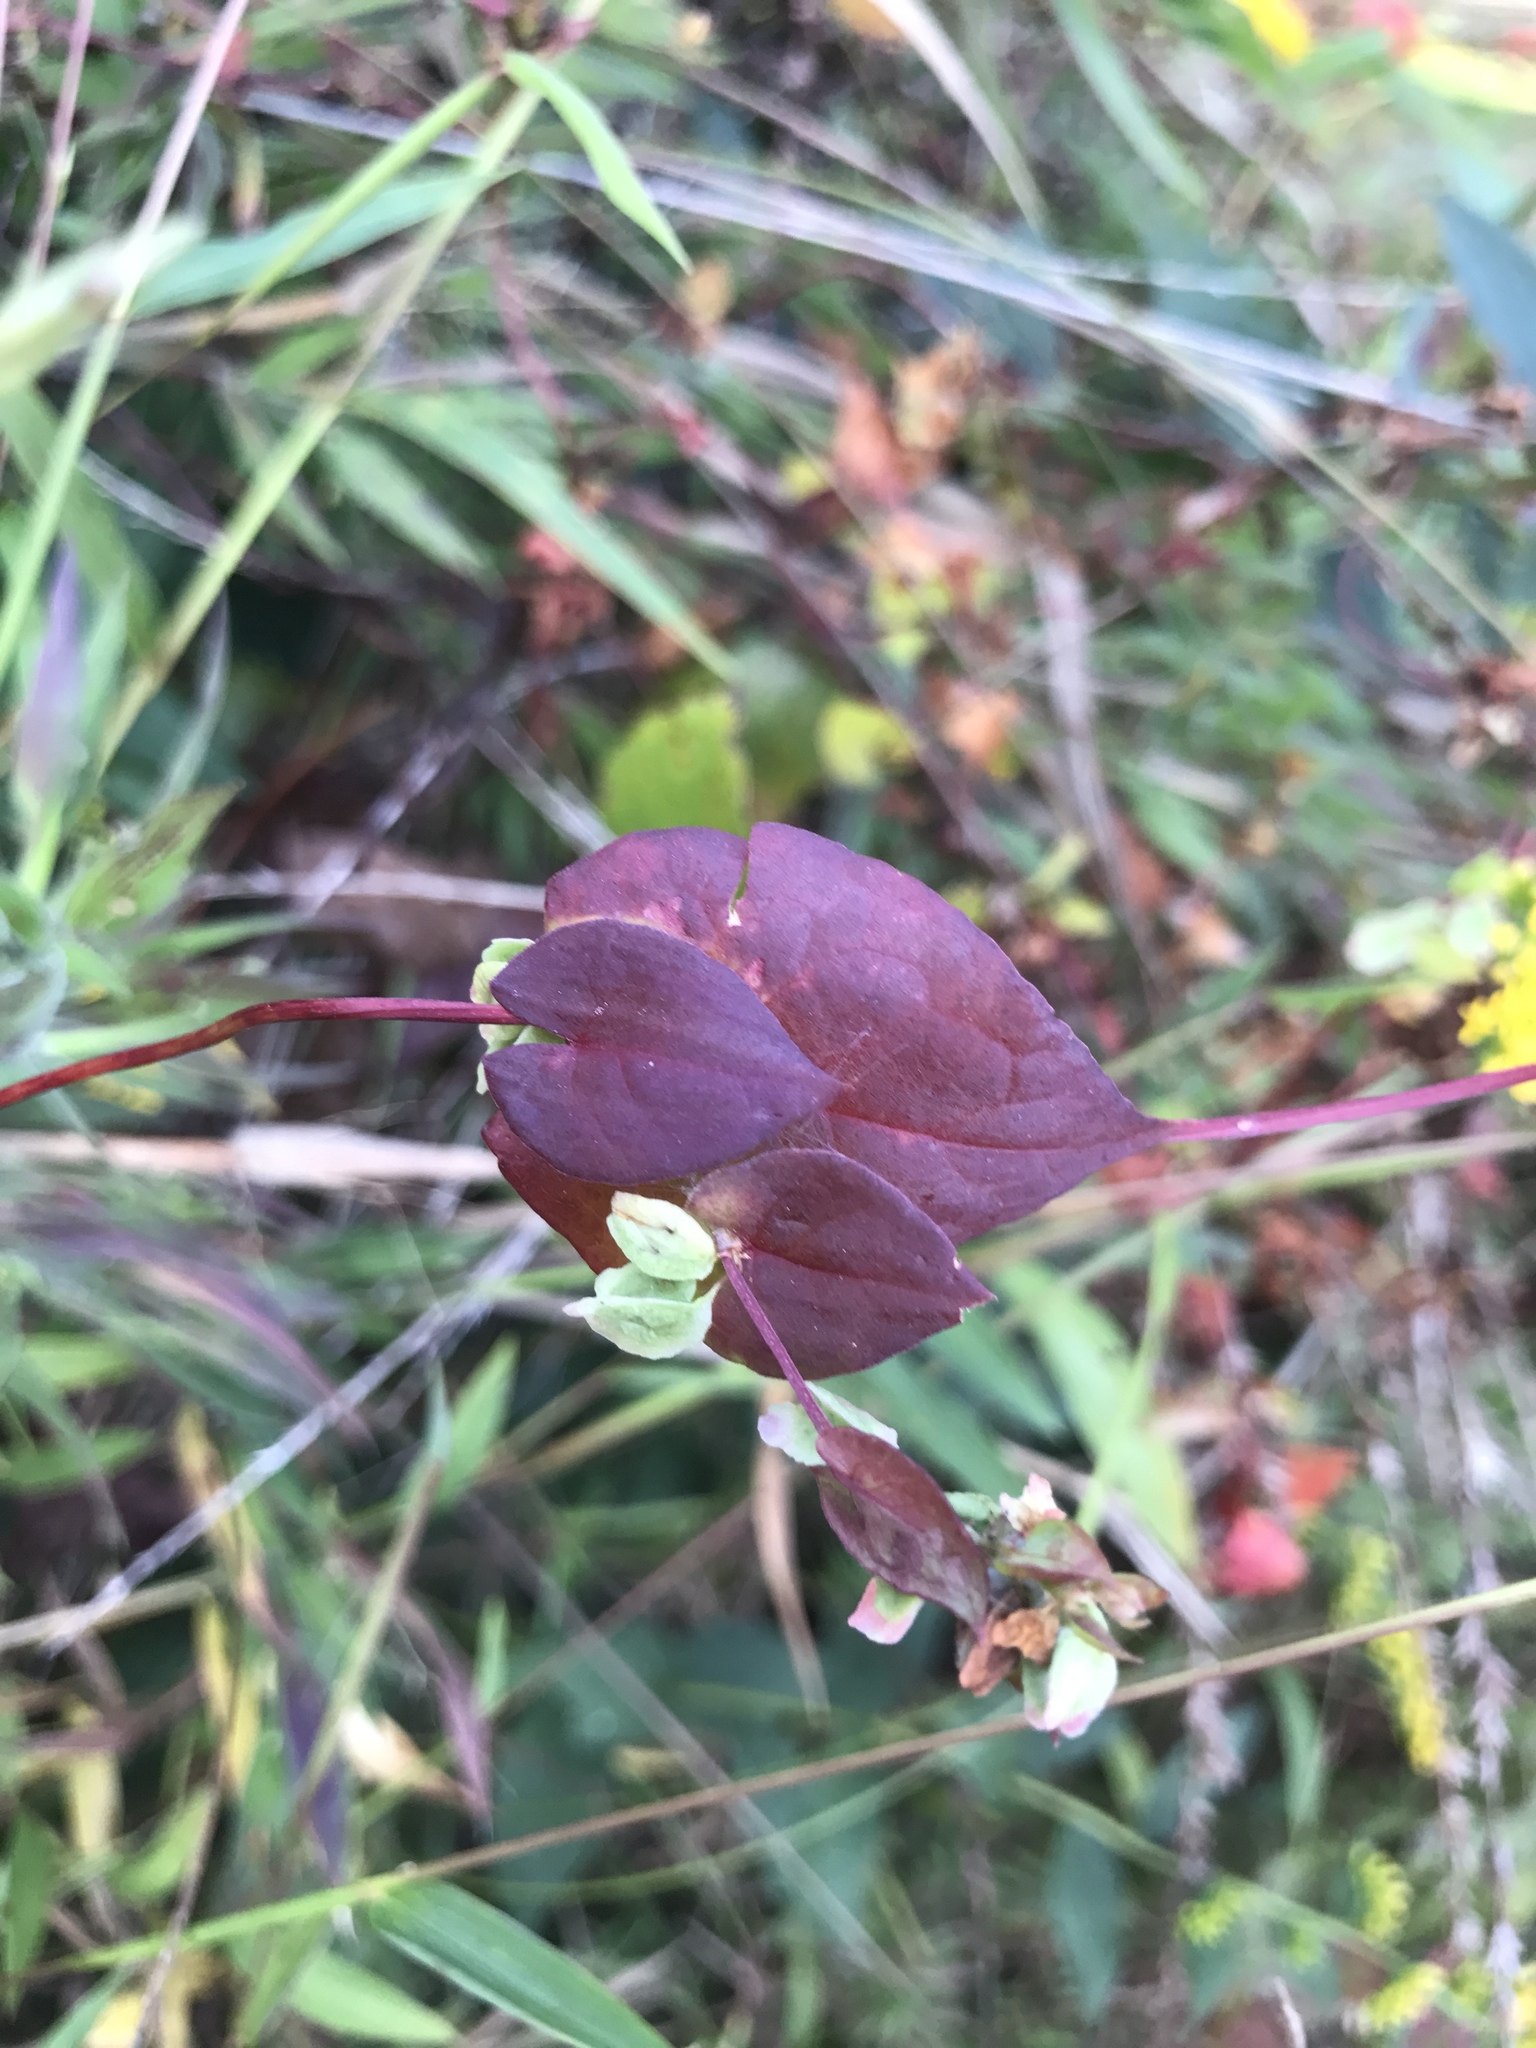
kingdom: Plantae
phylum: Tracheophyta
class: Magnoliopsida
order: Caryophyllales
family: Polygonaceae
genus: Fallopia
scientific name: Fallopia scandens
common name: Climbing false buckwheat
